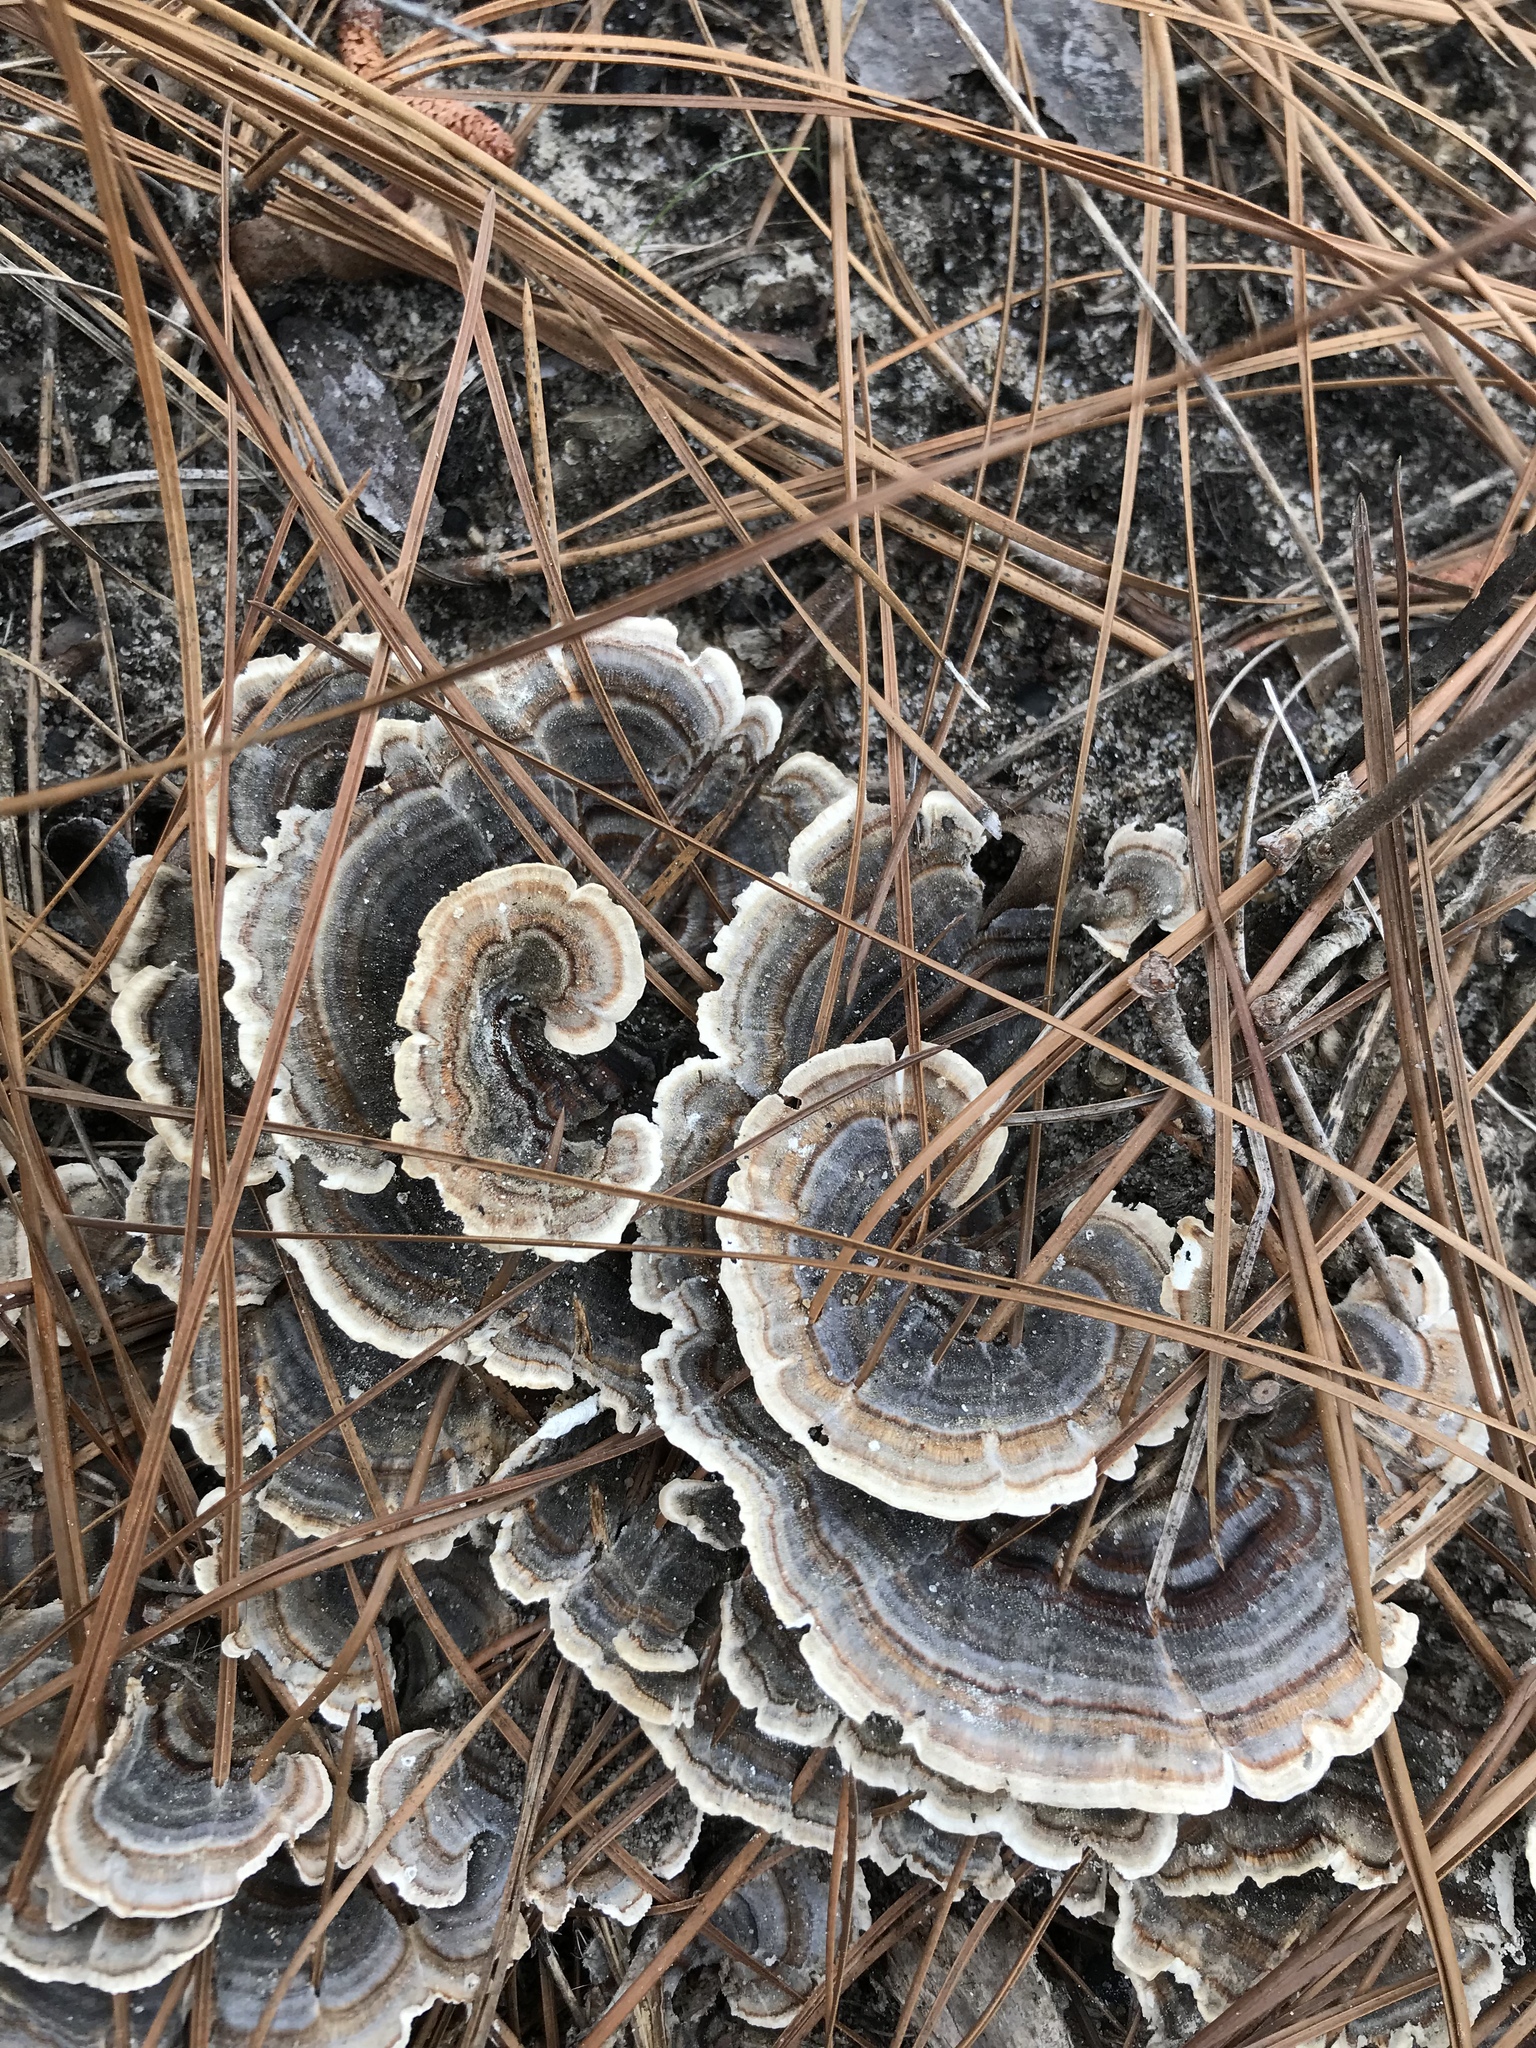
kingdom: Fungi
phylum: Basidiomycota
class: Agaricomycetes
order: Polyporales
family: Polyporaceae
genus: Trametes
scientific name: Trametes versicolor
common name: Turkeytail
